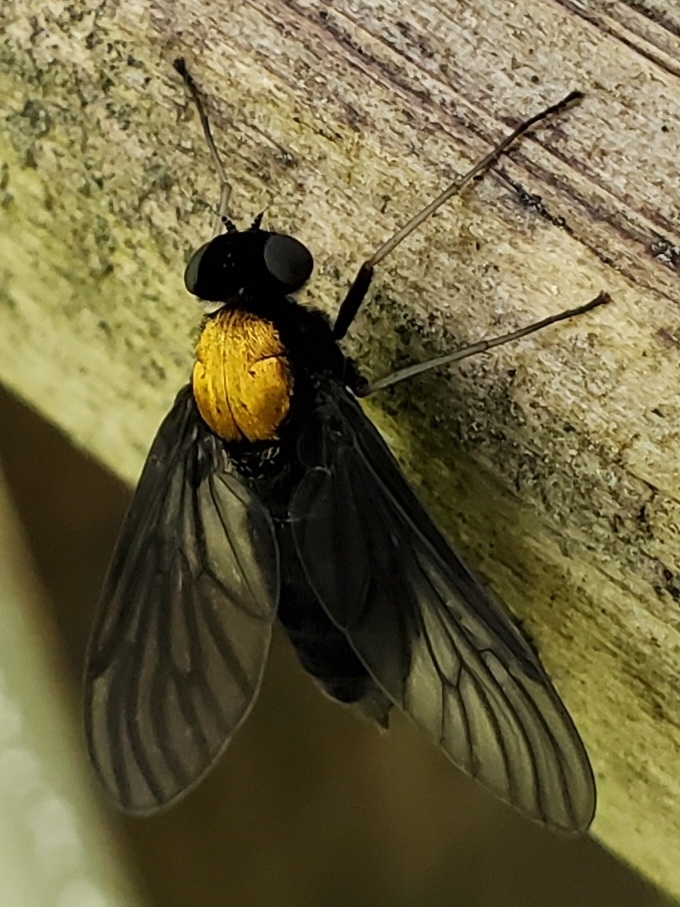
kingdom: Animalia
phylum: Arthropoda
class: Insecta
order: Diptera
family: Rhagionidae
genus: Chrysopilus
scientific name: Chrysopilus davisi
